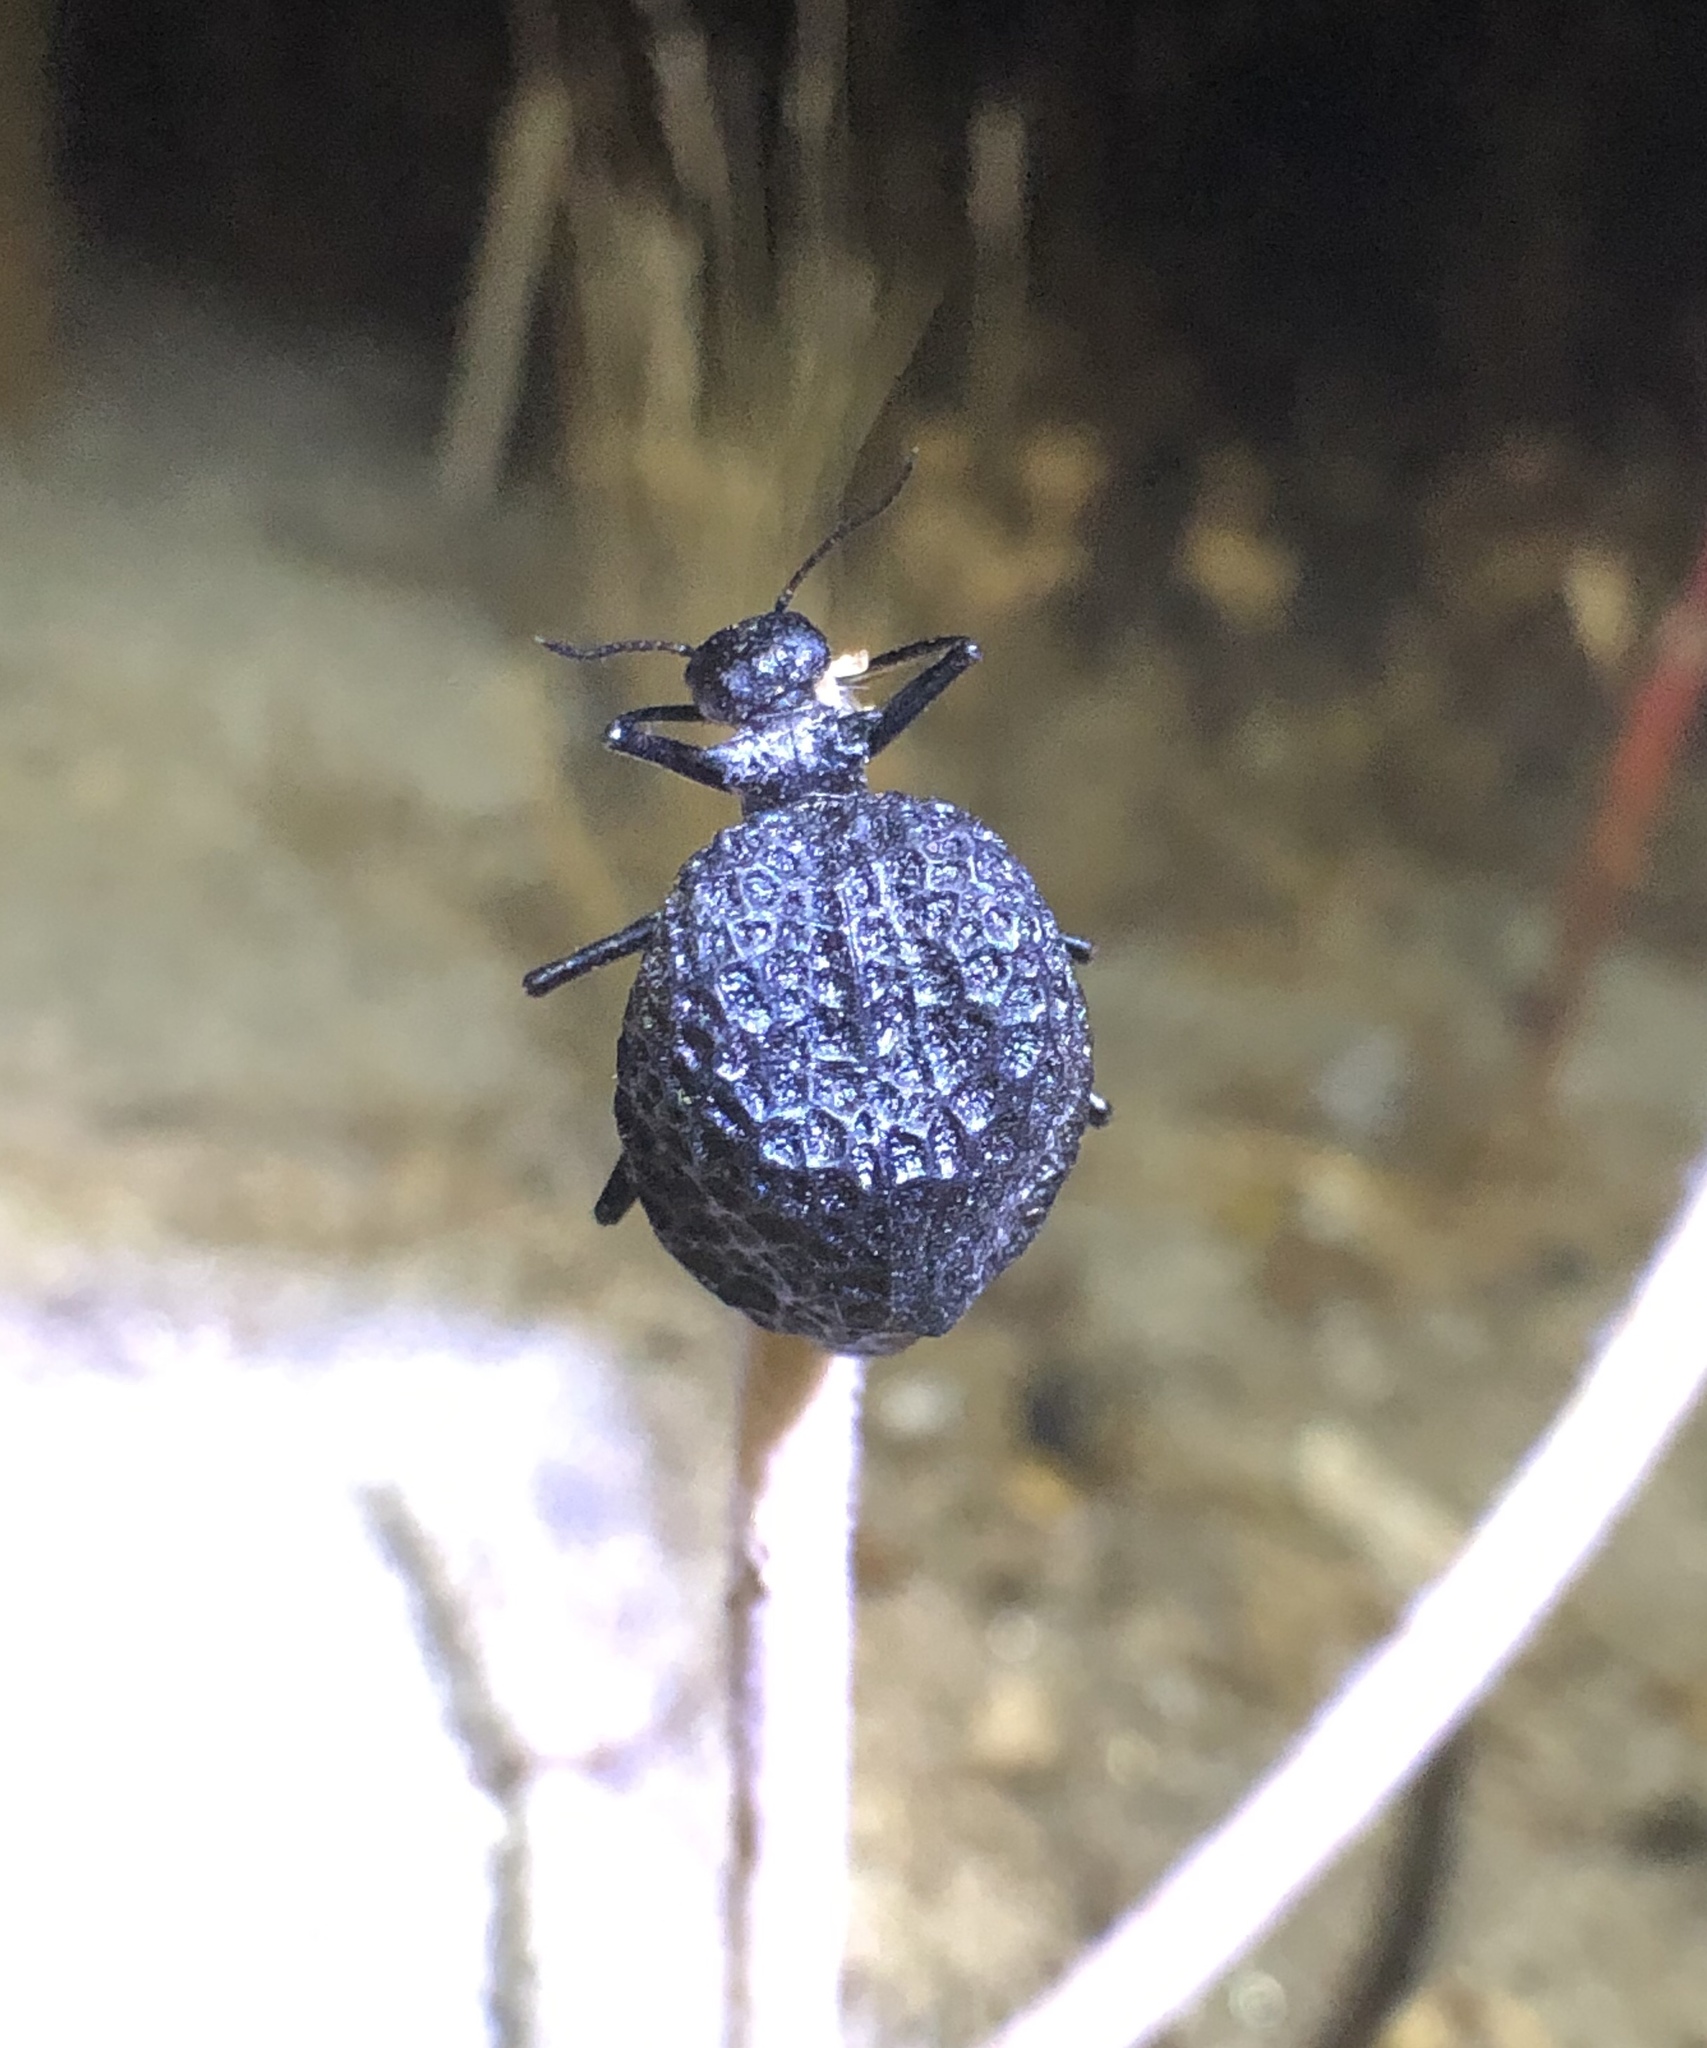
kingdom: Animalia
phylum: Arthropoda
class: Insecta
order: Coleoptera
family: Meloidae
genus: Cysteodemus
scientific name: Cysteodemus armatus
